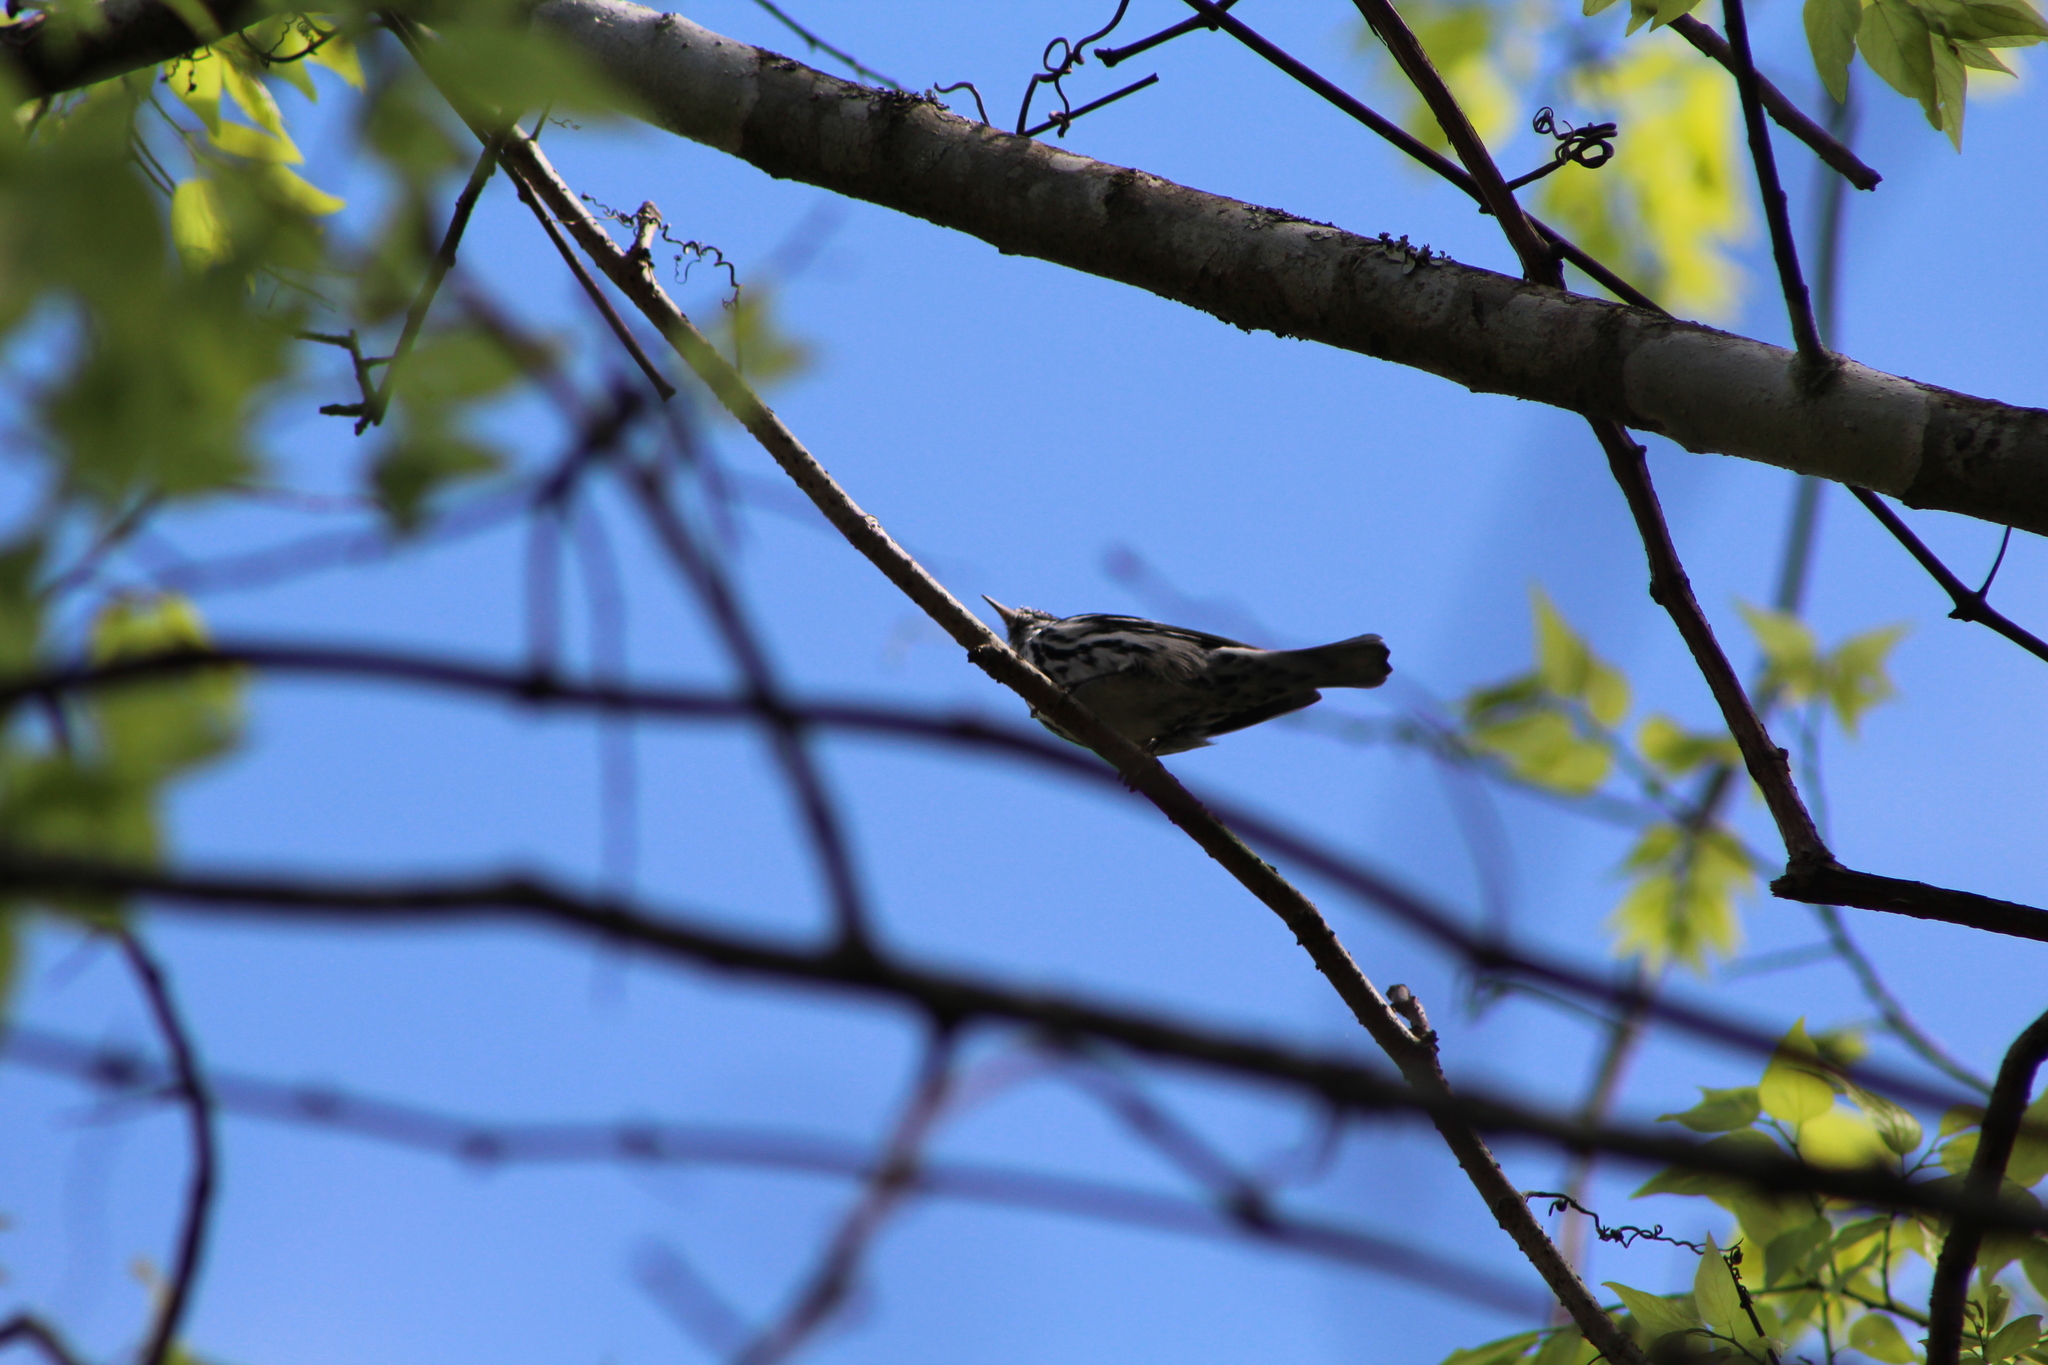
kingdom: Animalia
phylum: Chordata
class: Aves
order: Passeriformes
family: Parulidae
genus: Mniotilta
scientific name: Mniotilta varia
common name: Black-and-white warbler
